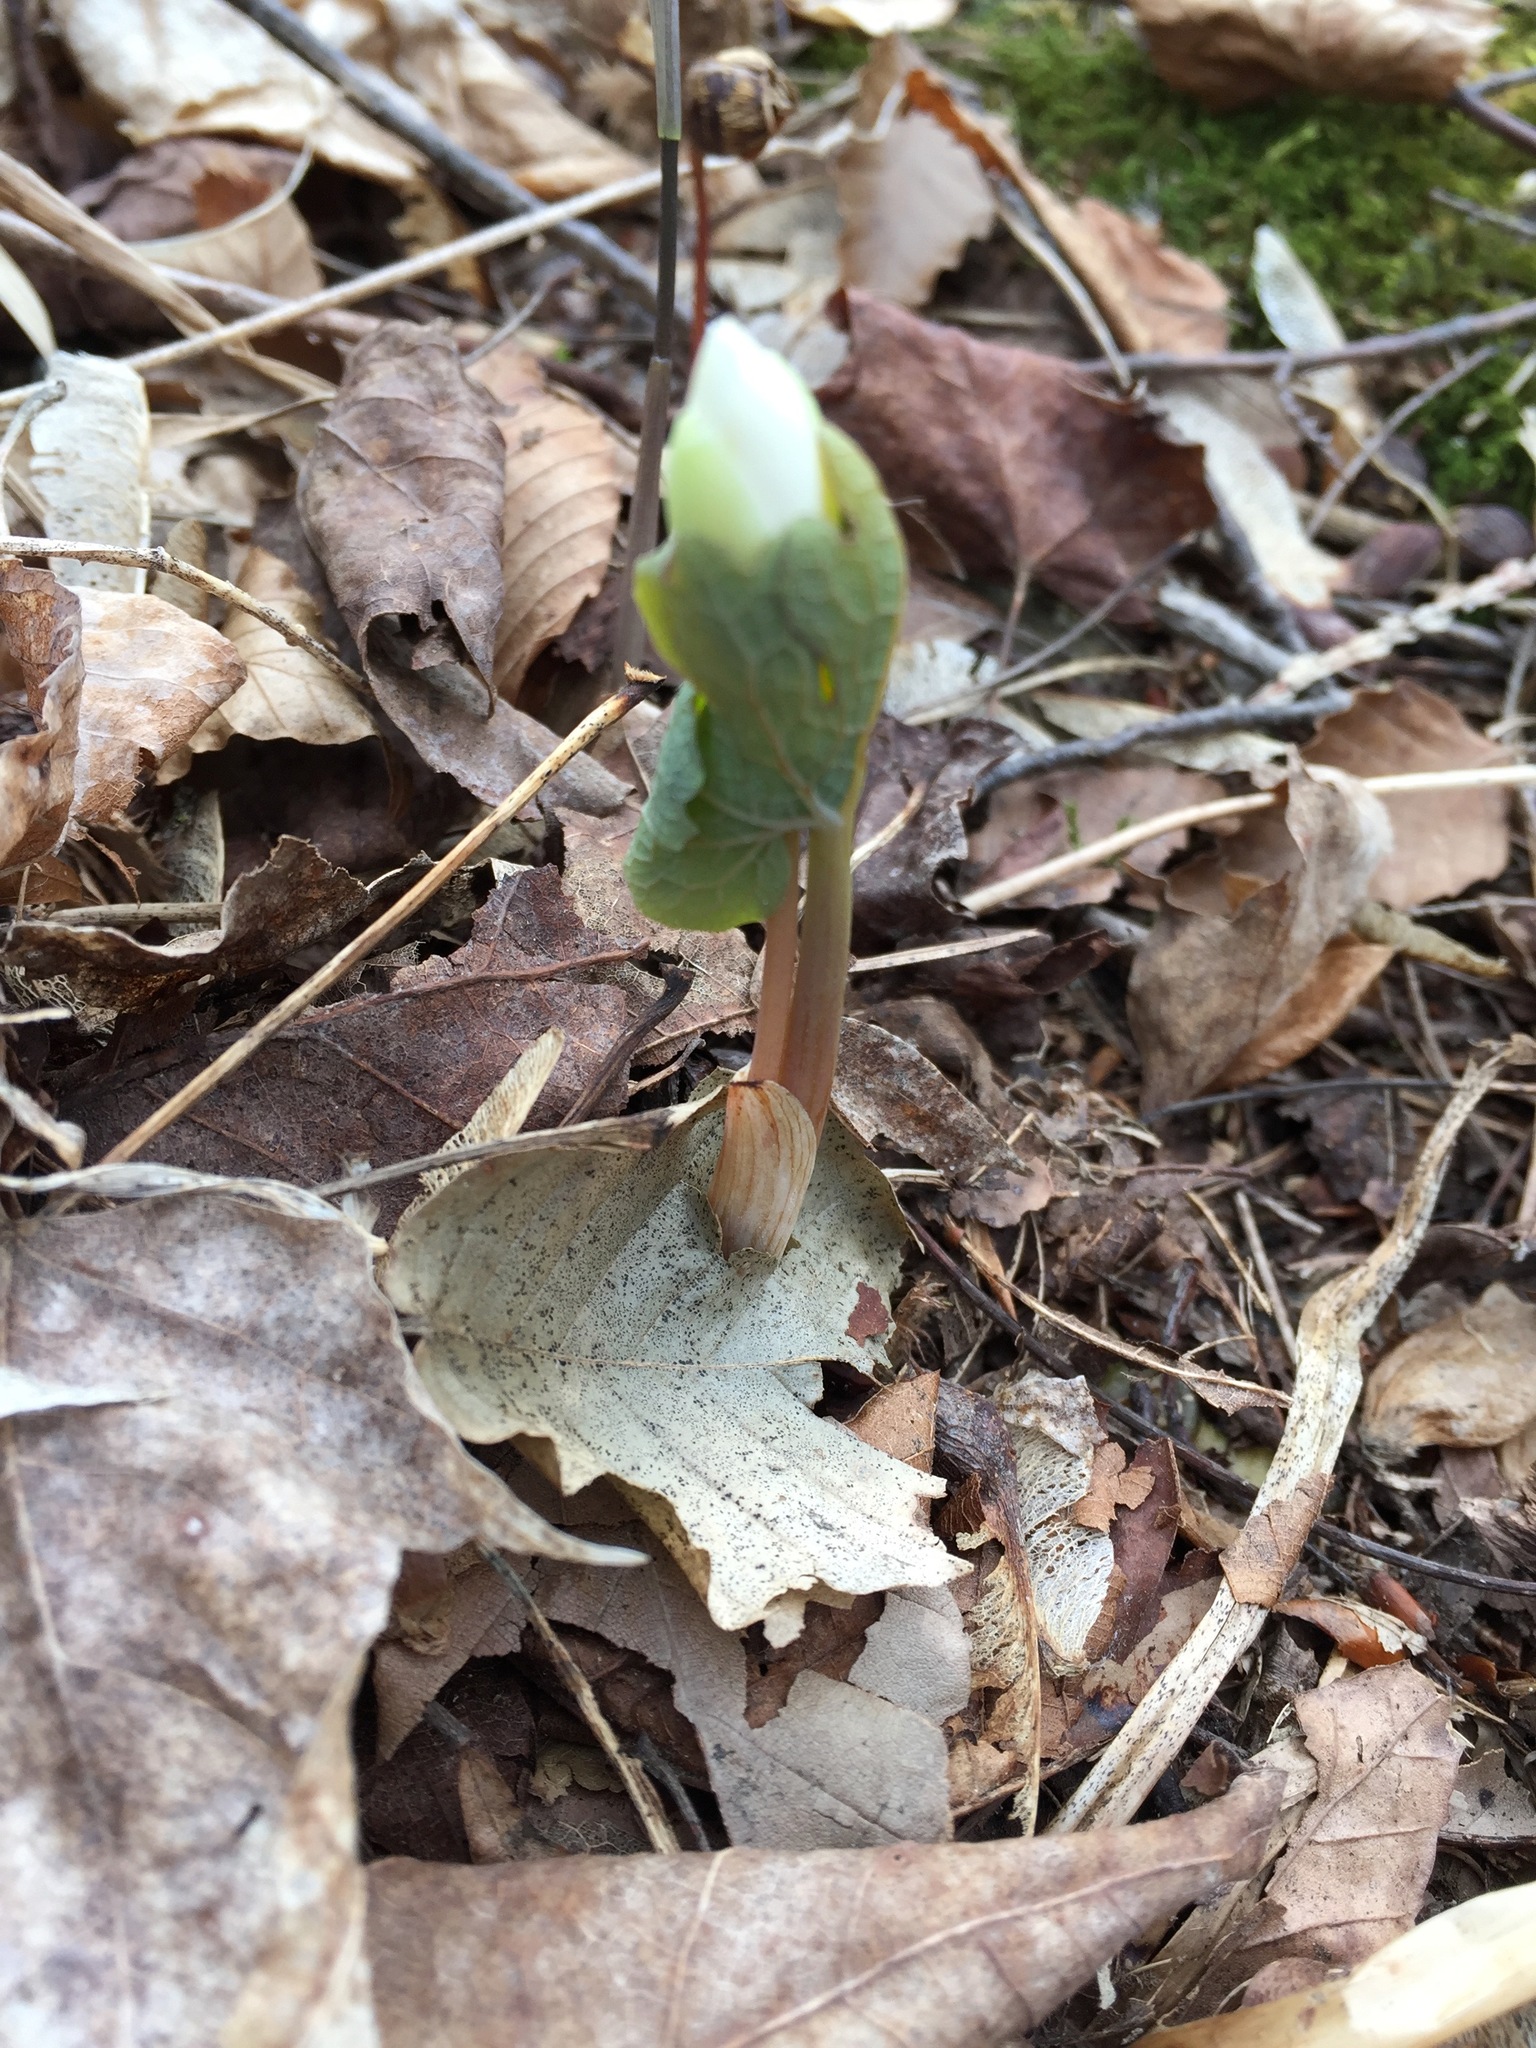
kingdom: Plantae
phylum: Tracheophyta
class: Magnoliopsida
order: Ranunculales
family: Papaveraceae
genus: Sanguinaria
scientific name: Sanguinaria canadensis
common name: Bloodroot
